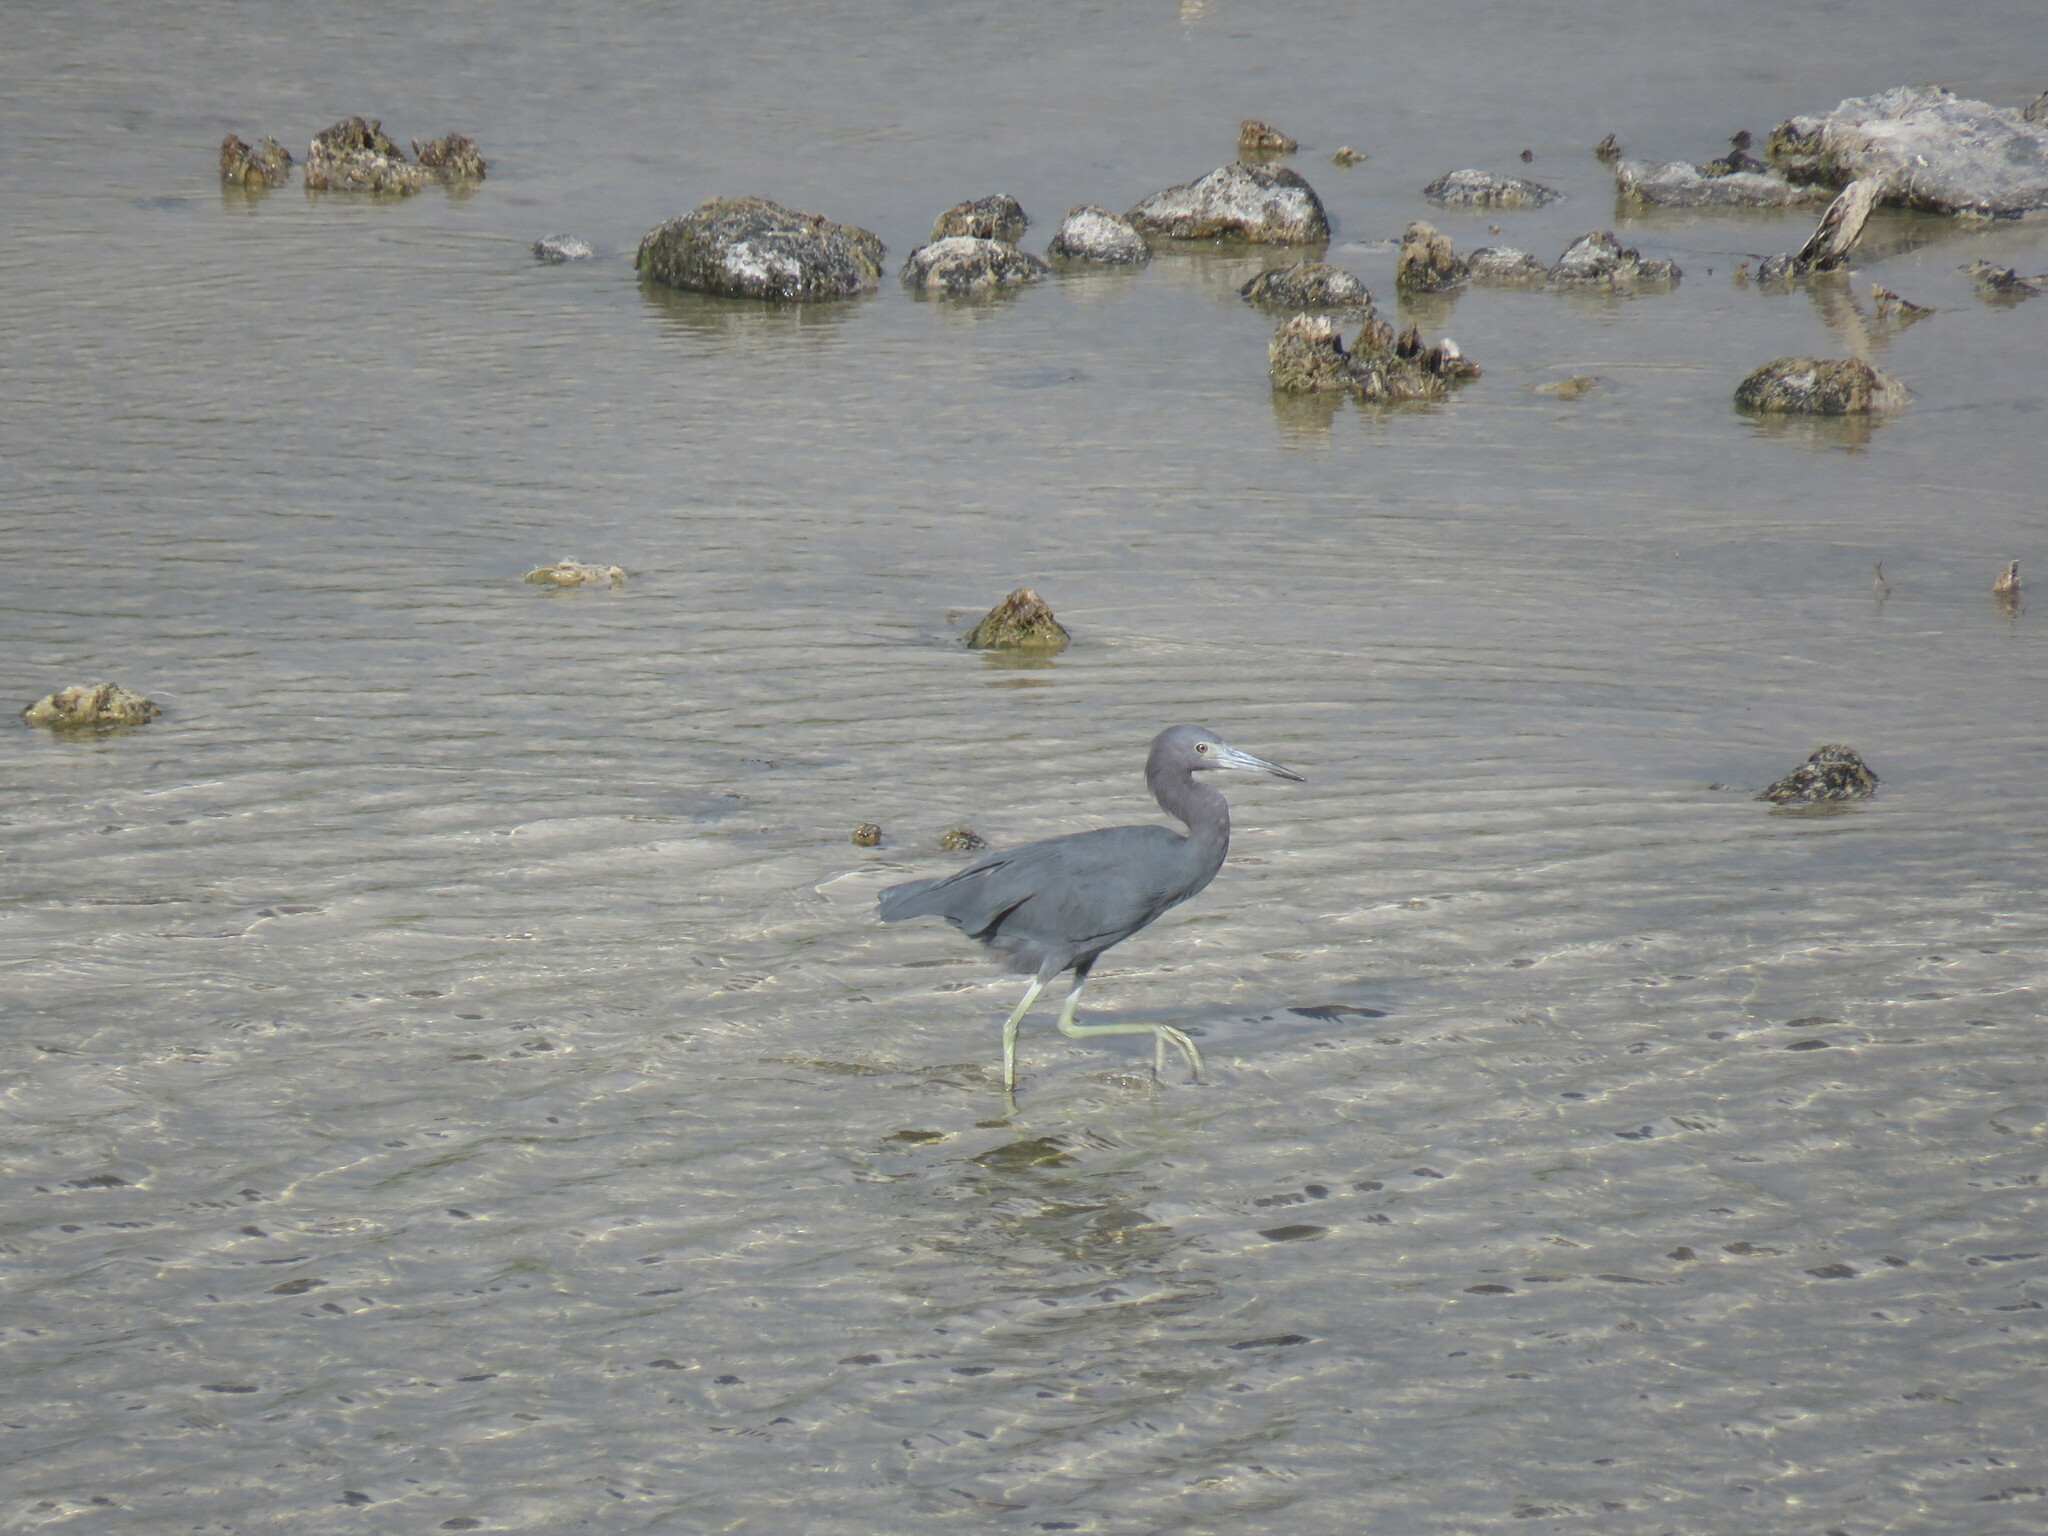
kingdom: Animalia
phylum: Chordata
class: Aves
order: Pelecaniformes
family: Ardeidae
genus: Egretta
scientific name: Egretta caerulea
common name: Little blue heron
